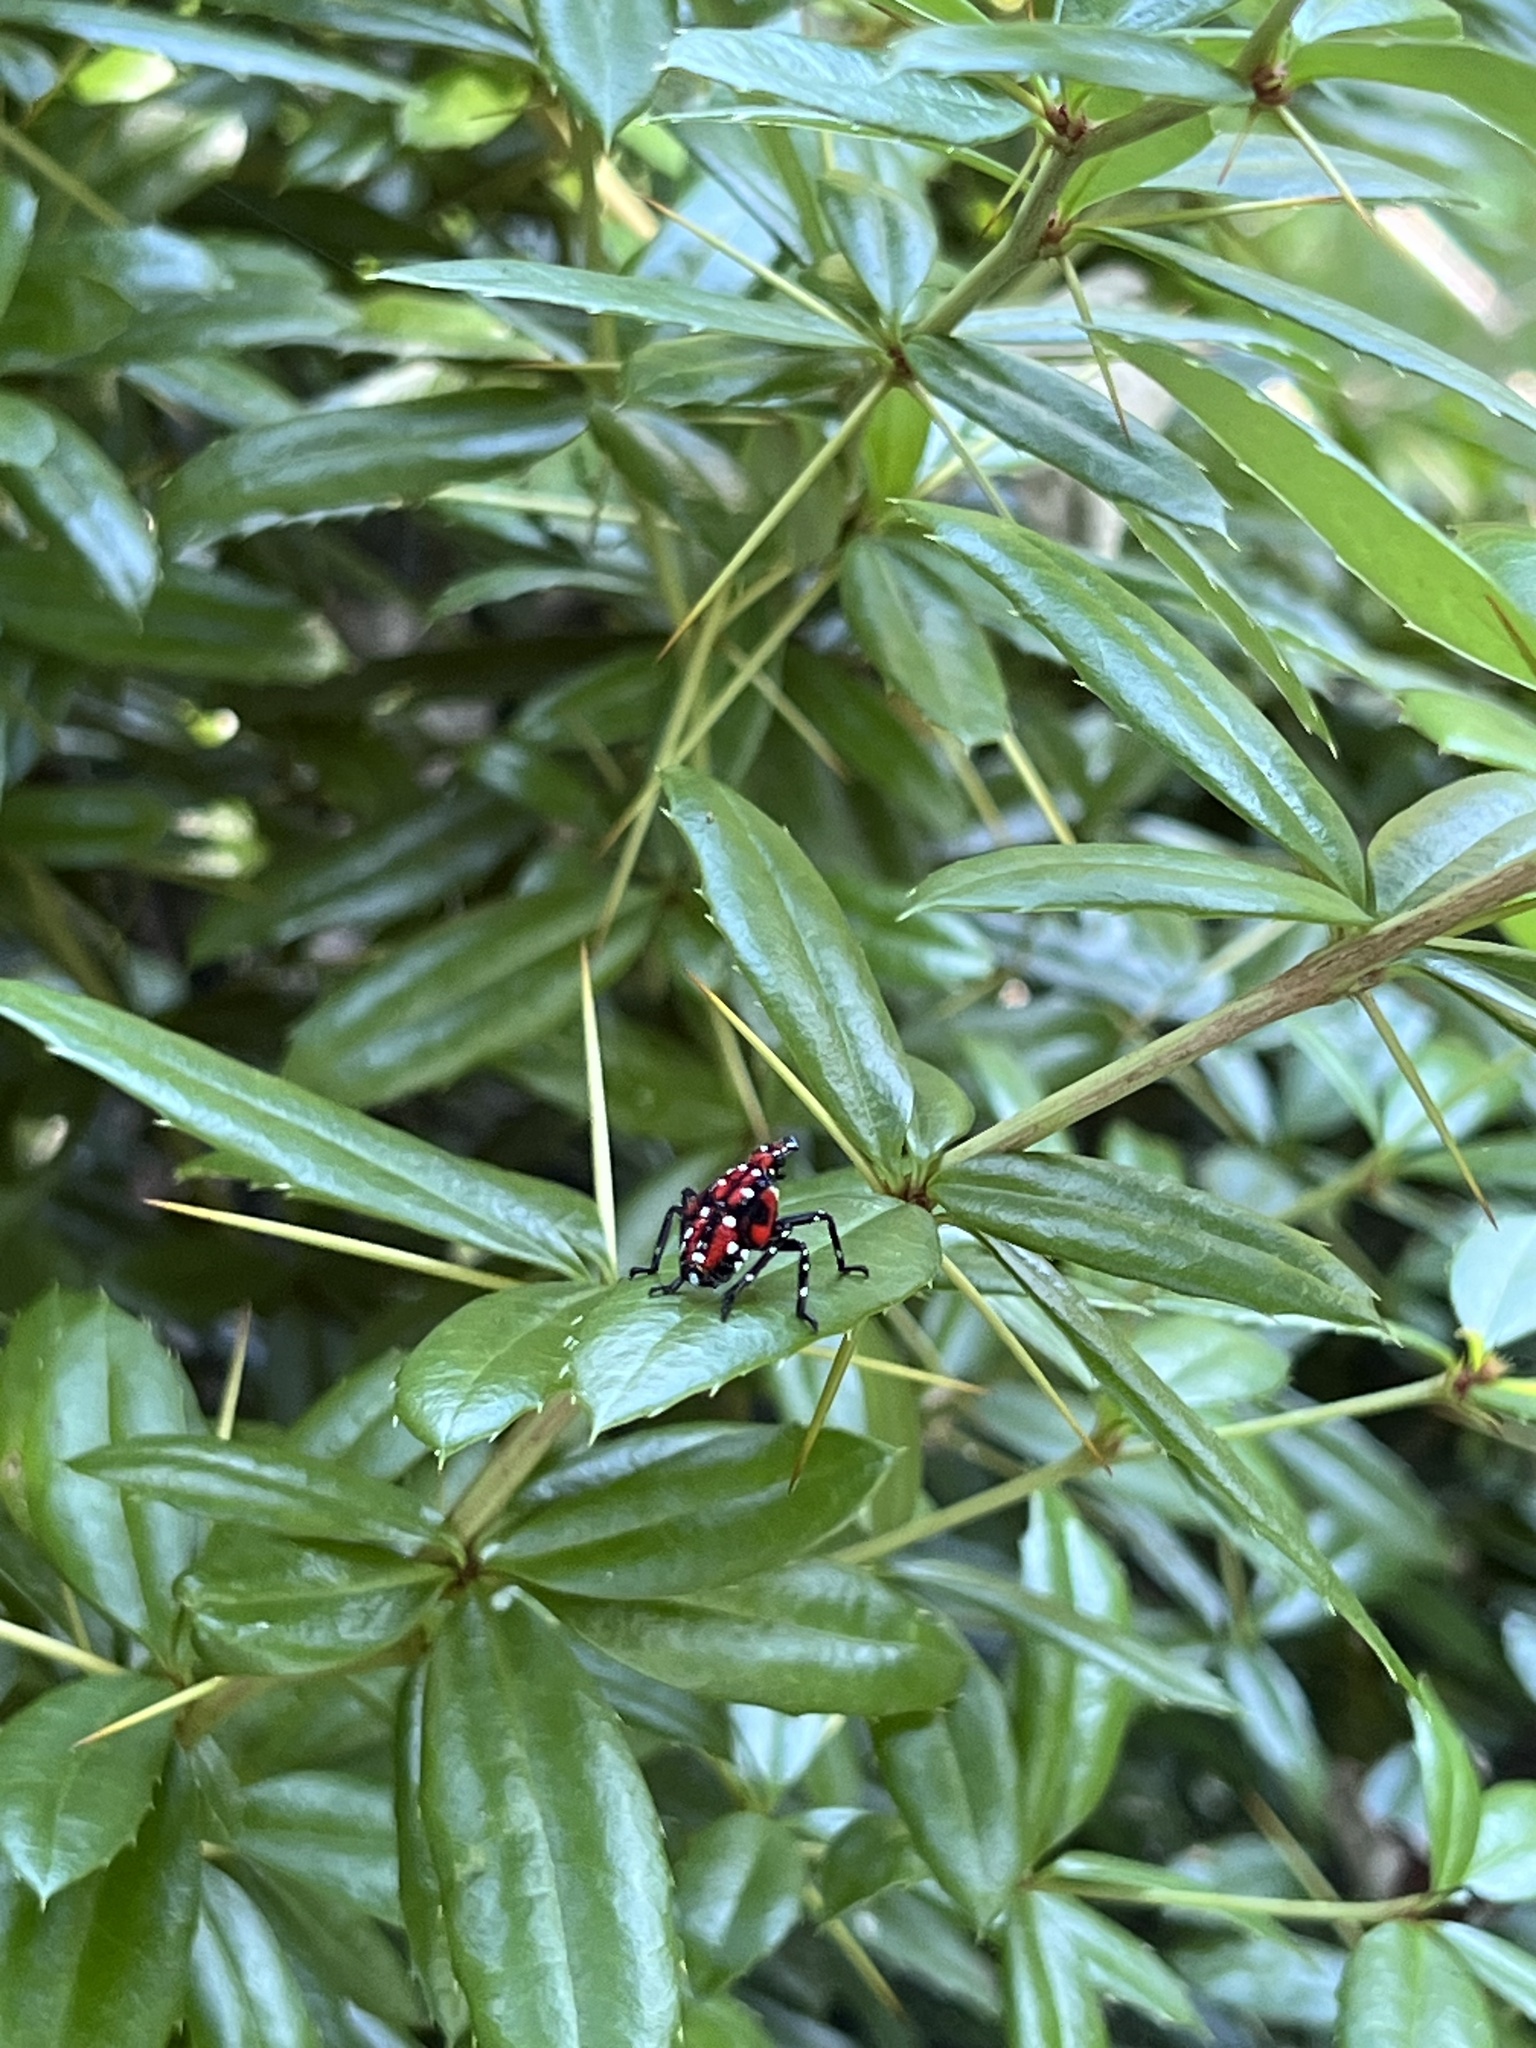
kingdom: Animalia
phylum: Arthropoda
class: Insecta
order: Hemiptera
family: Fulgoridae
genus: Lycorma
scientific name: Lycorma delicatula
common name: Spotted lanternfly
